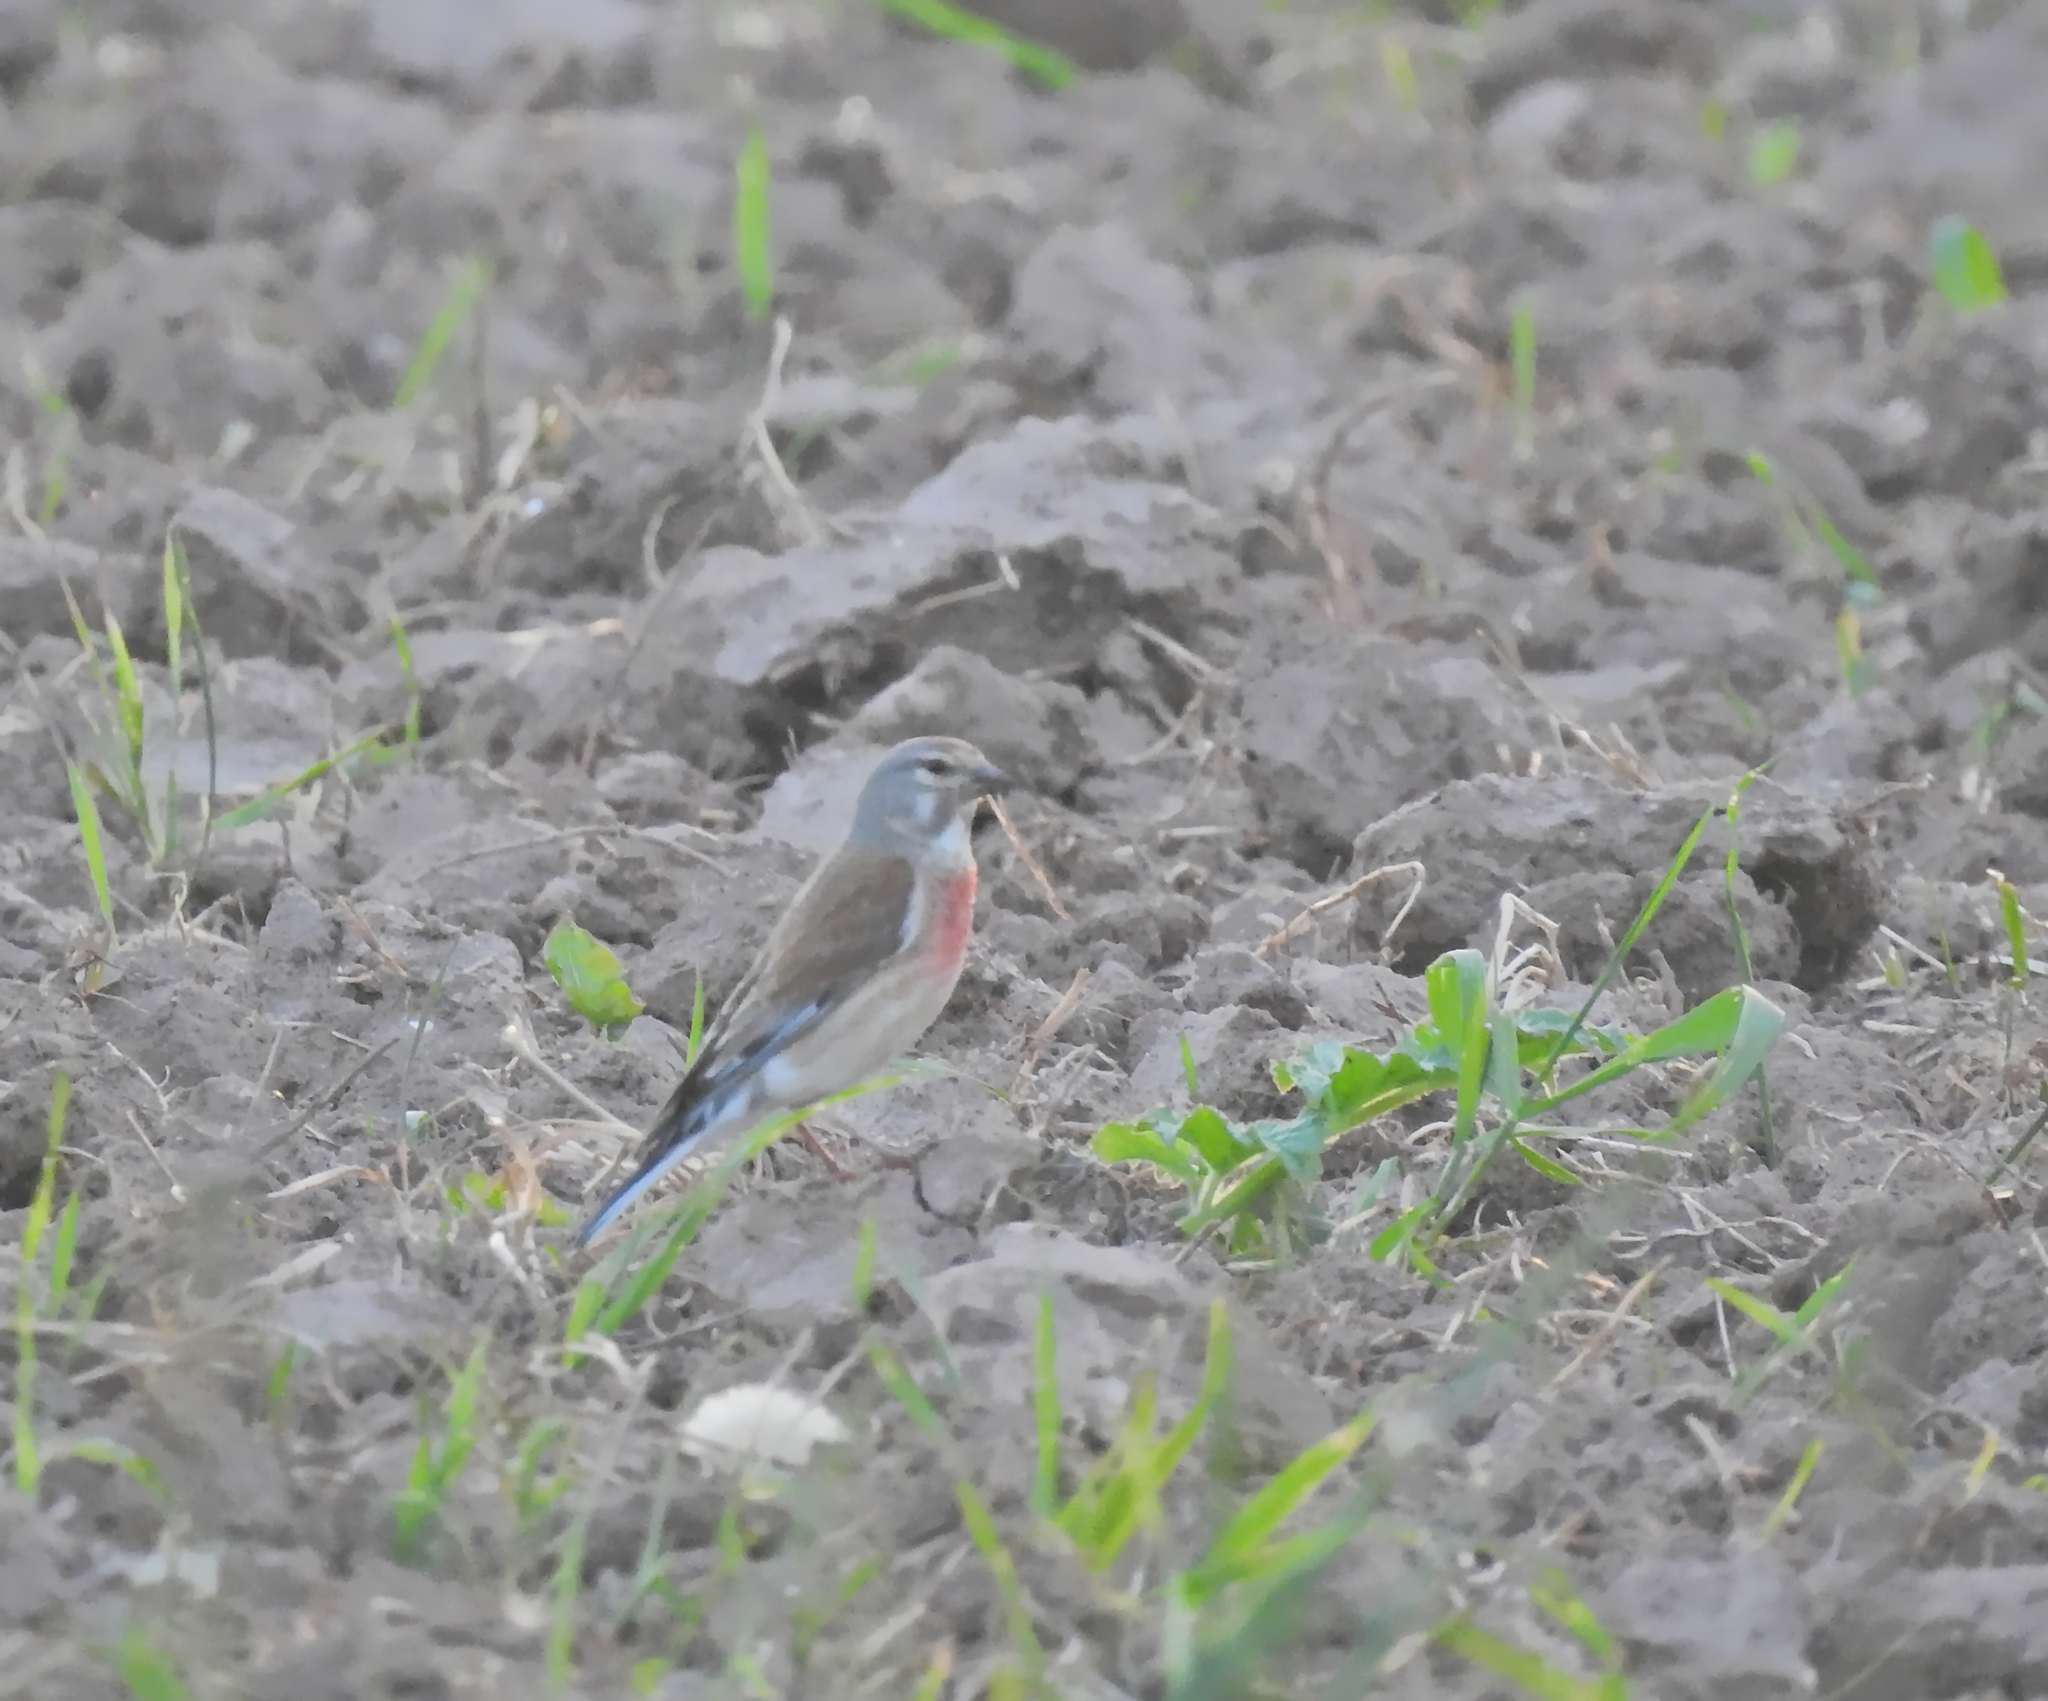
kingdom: Animalia
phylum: Chordata
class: Aves
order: Passeriformes
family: Fringillidae
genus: Linaria
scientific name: Linaria cannabina
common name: Common linnet
